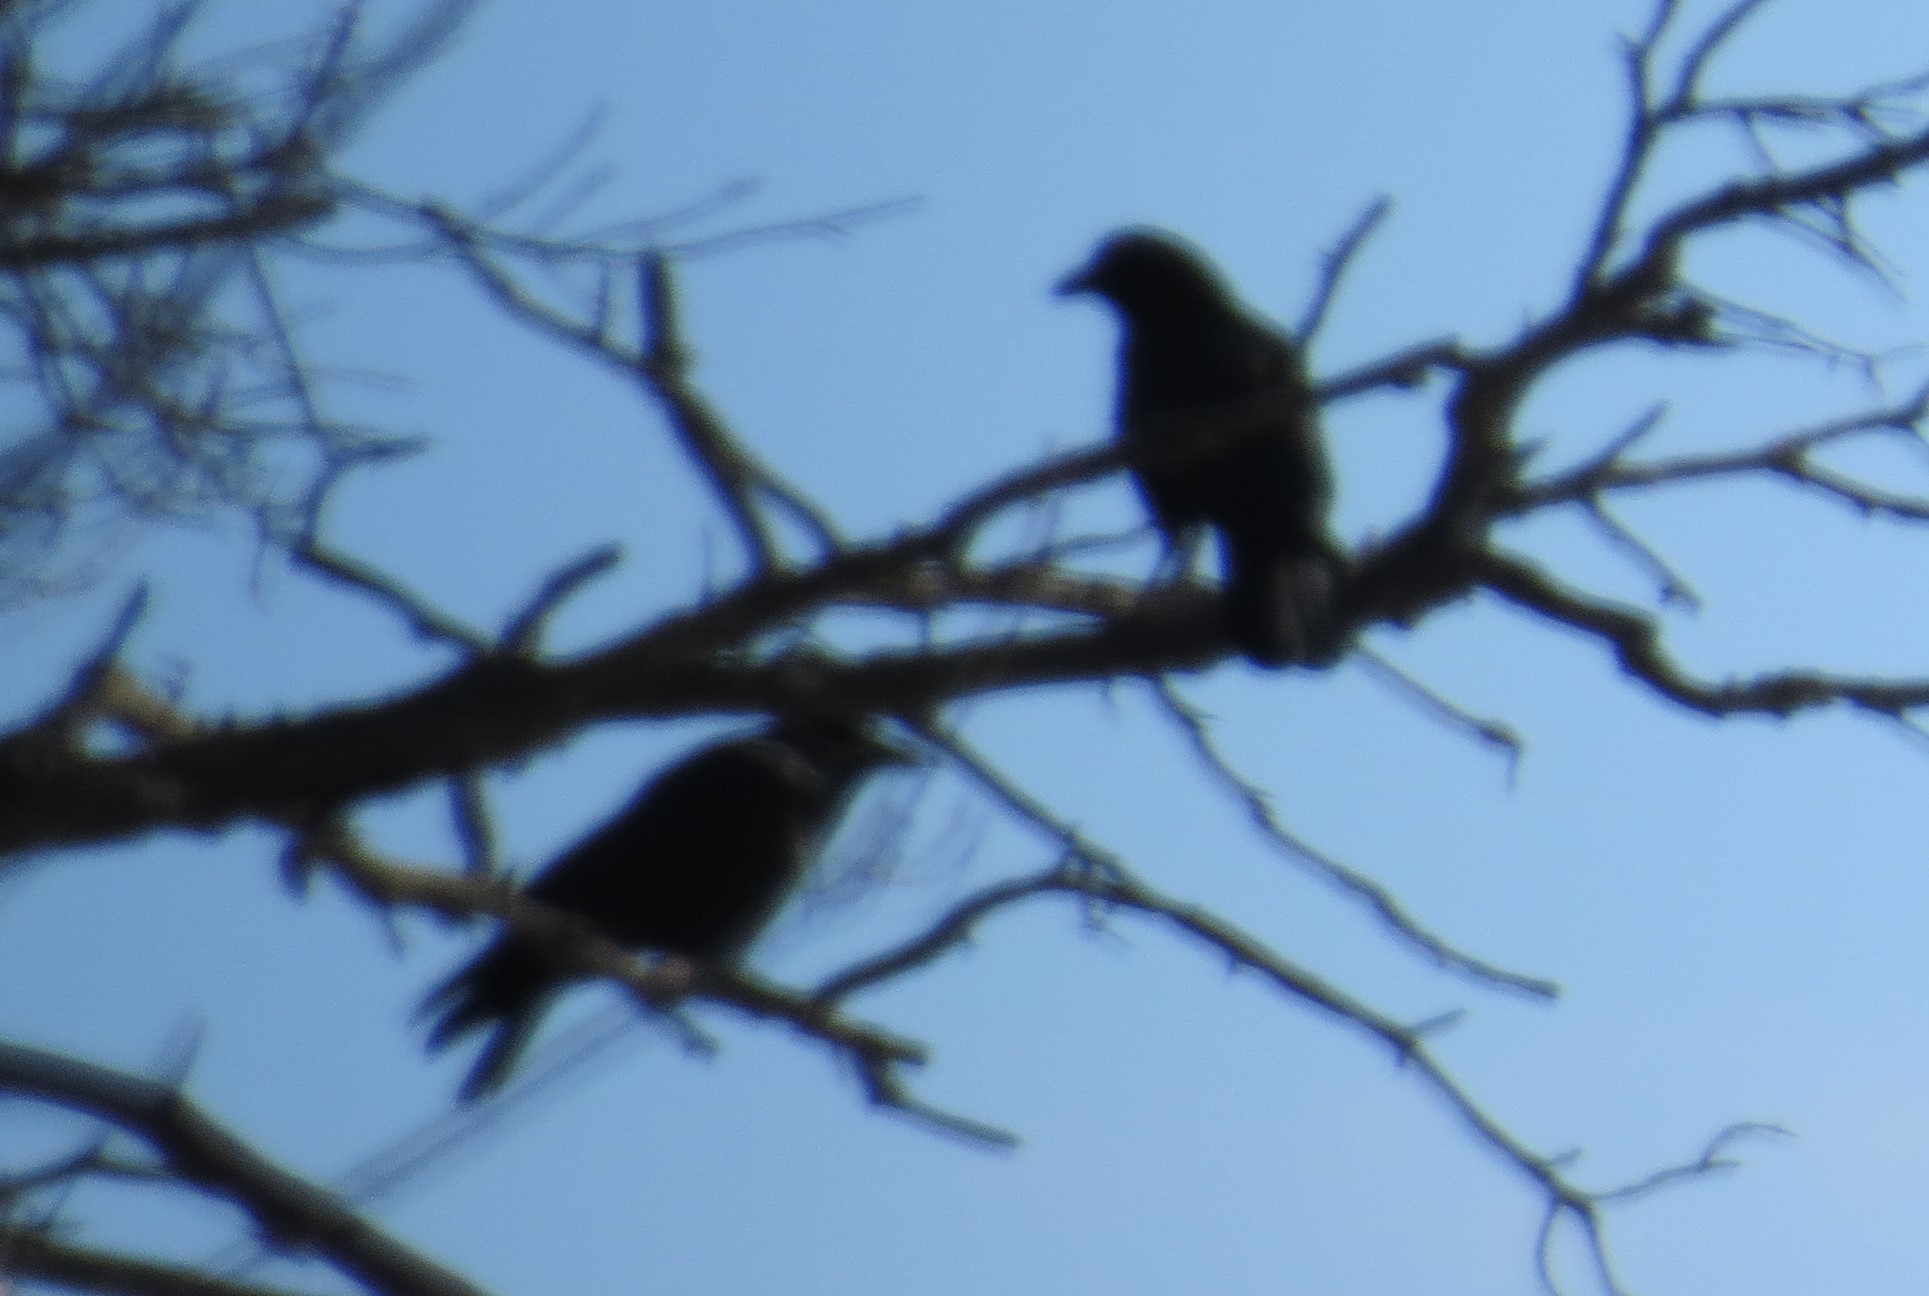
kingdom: Animalia
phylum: Chordata
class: Aves
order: Passeriformes
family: Corvidae
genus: Corvus
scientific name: Corvus brachyrhynchos
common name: American crow
